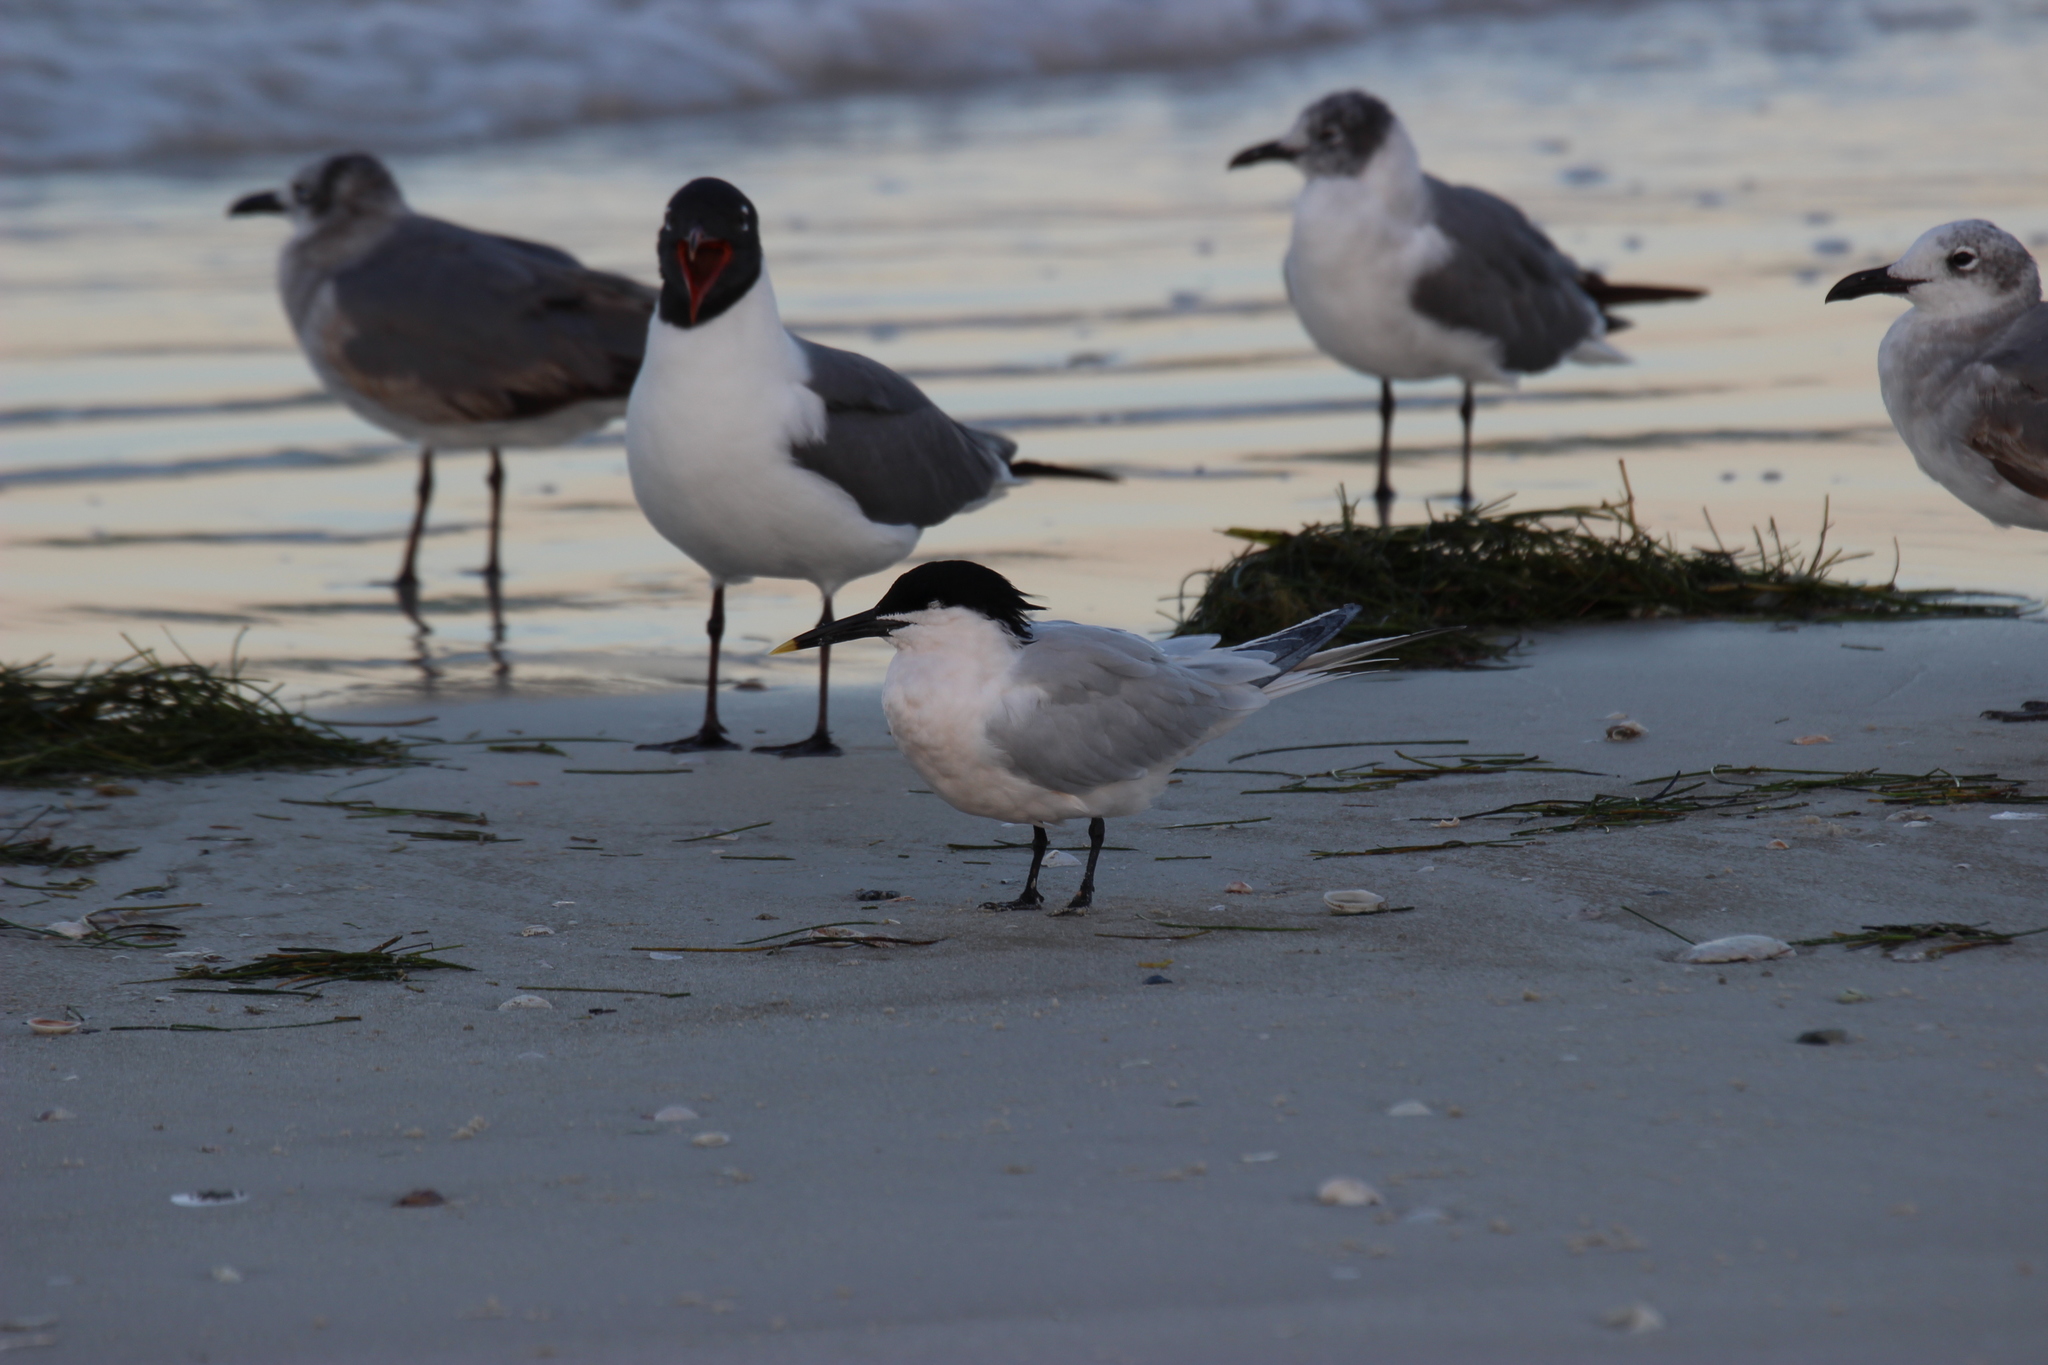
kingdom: Animalia
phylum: Chordata
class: Aves
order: Charadriiformes
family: Laridae
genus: Thalasseus
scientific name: Thalasseus sandvicensis
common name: Sandwich tern
